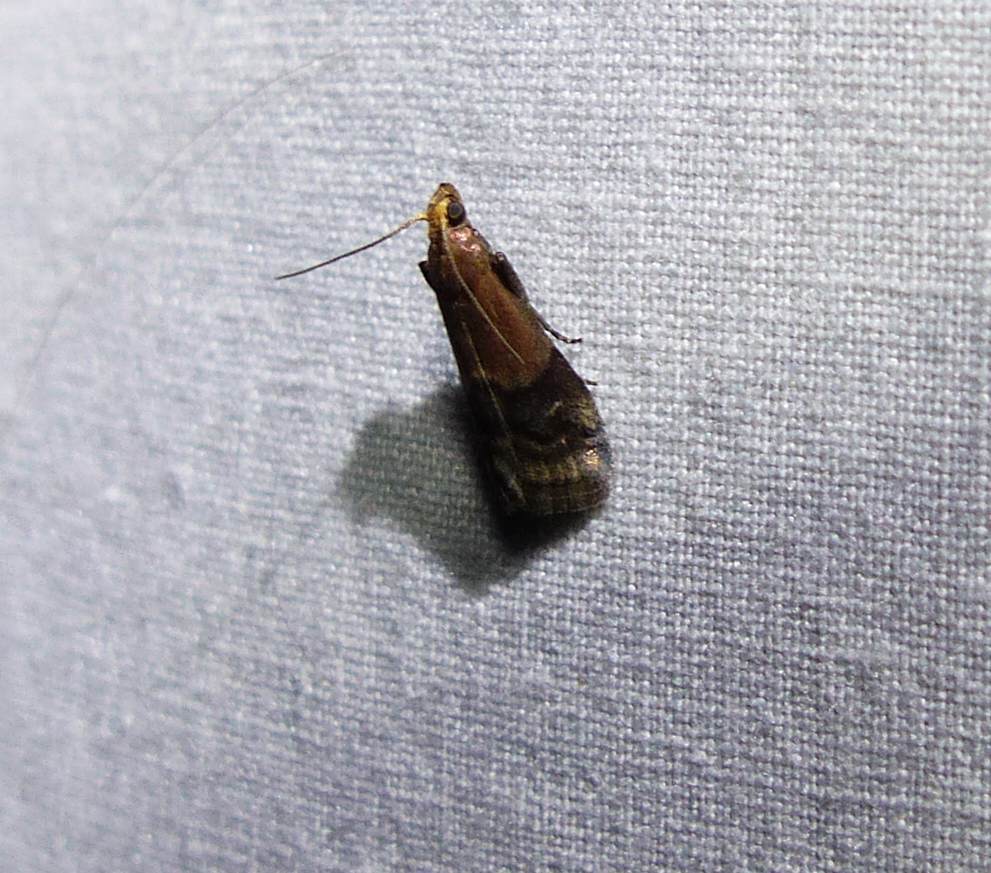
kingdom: Animalia
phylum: Arthropoda
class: Insecta
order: Lepidoptera
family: Pyralidae
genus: Eulogia
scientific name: Eulogia ochrifrontella
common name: Broad-banded eulogia moth
